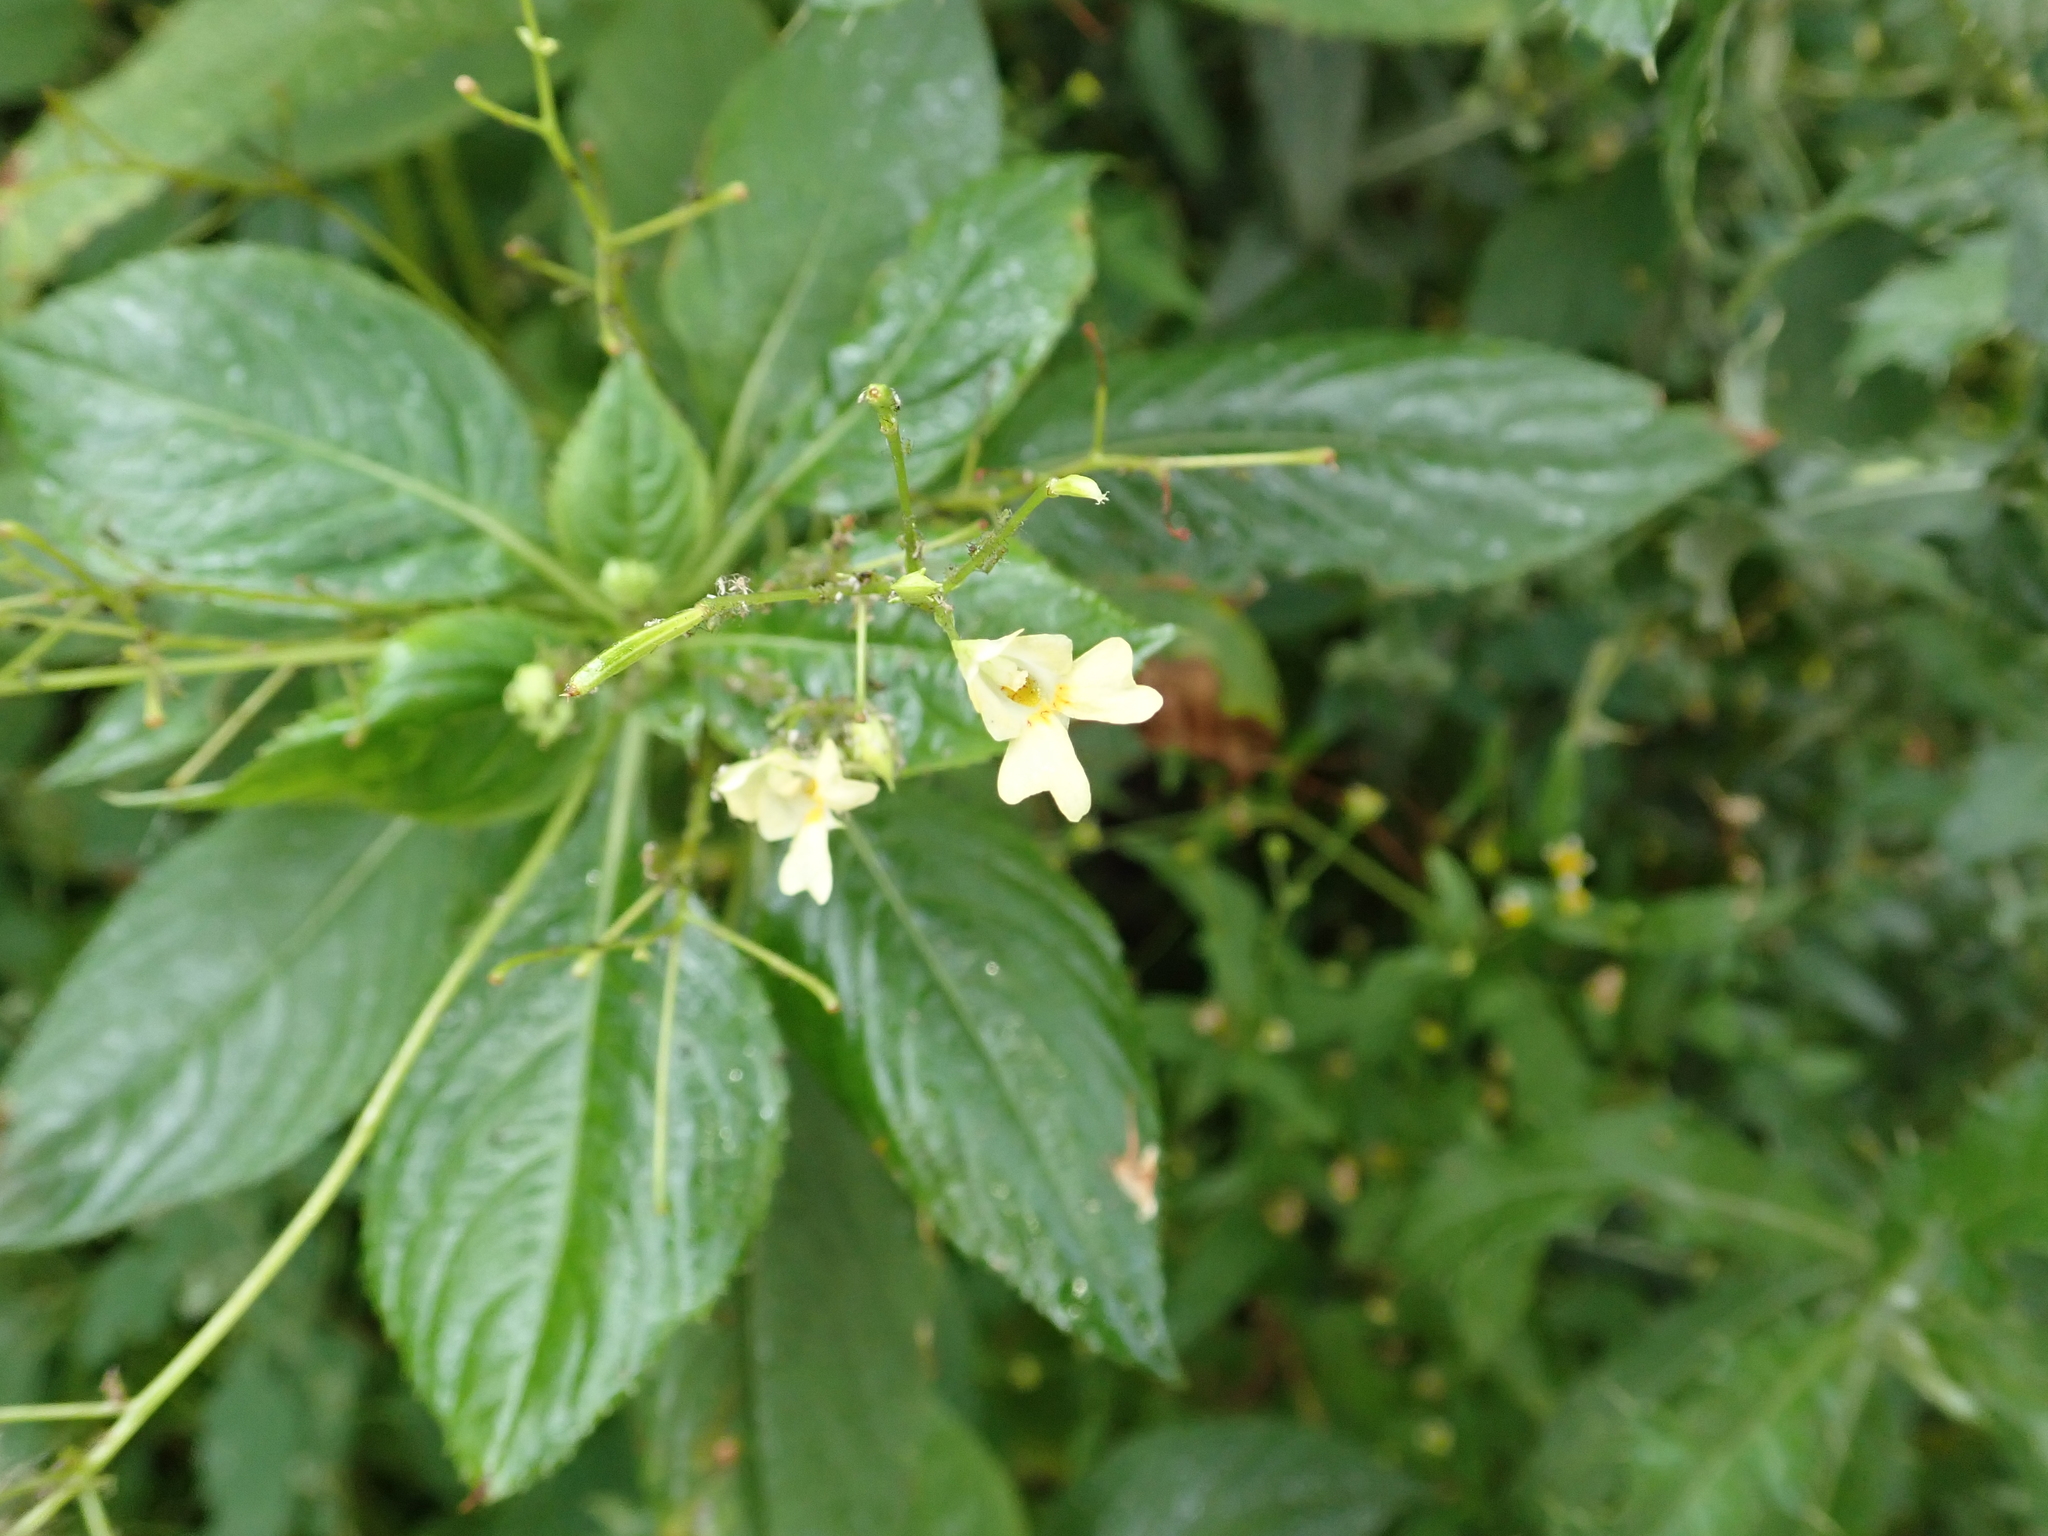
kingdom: Plantae
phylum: Tracheophyta
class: Magnoliopsida
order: Ericales
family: Balsaminaceae
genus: Impatiens
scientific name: Impatiens parviflora
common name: Small balsam
